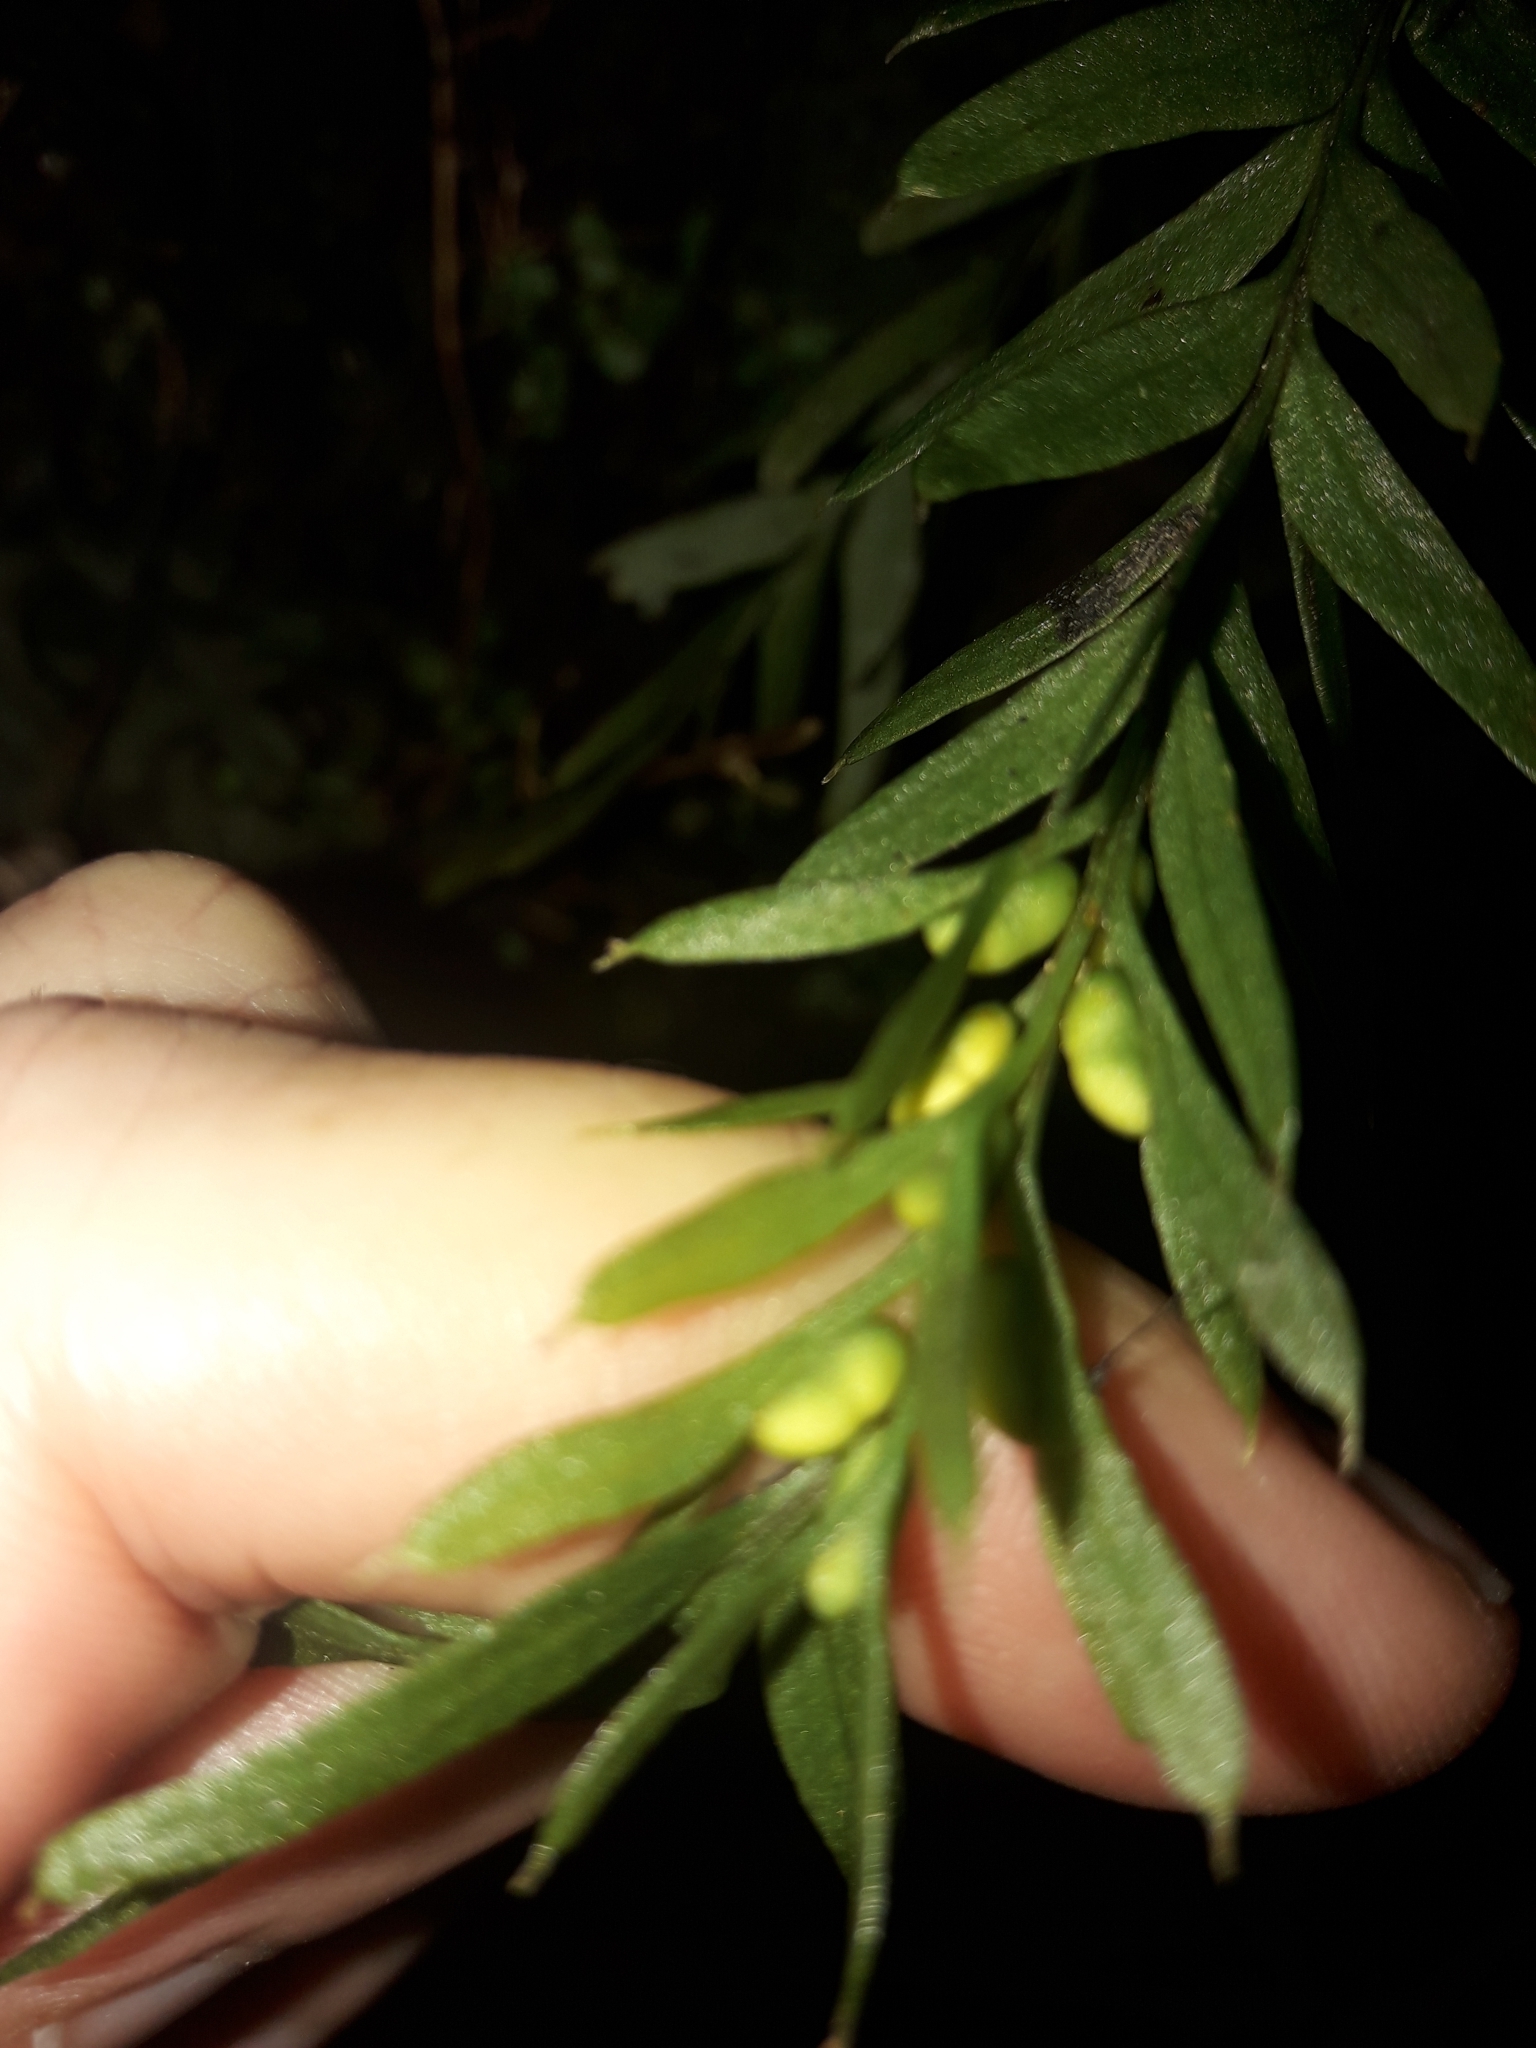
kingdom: Plantae
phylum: Tracheophyta
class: Polypodiopsida
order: Psilotales
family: Psilotaceae
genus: Tmesipteris
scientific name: Tmesipteris elongata
